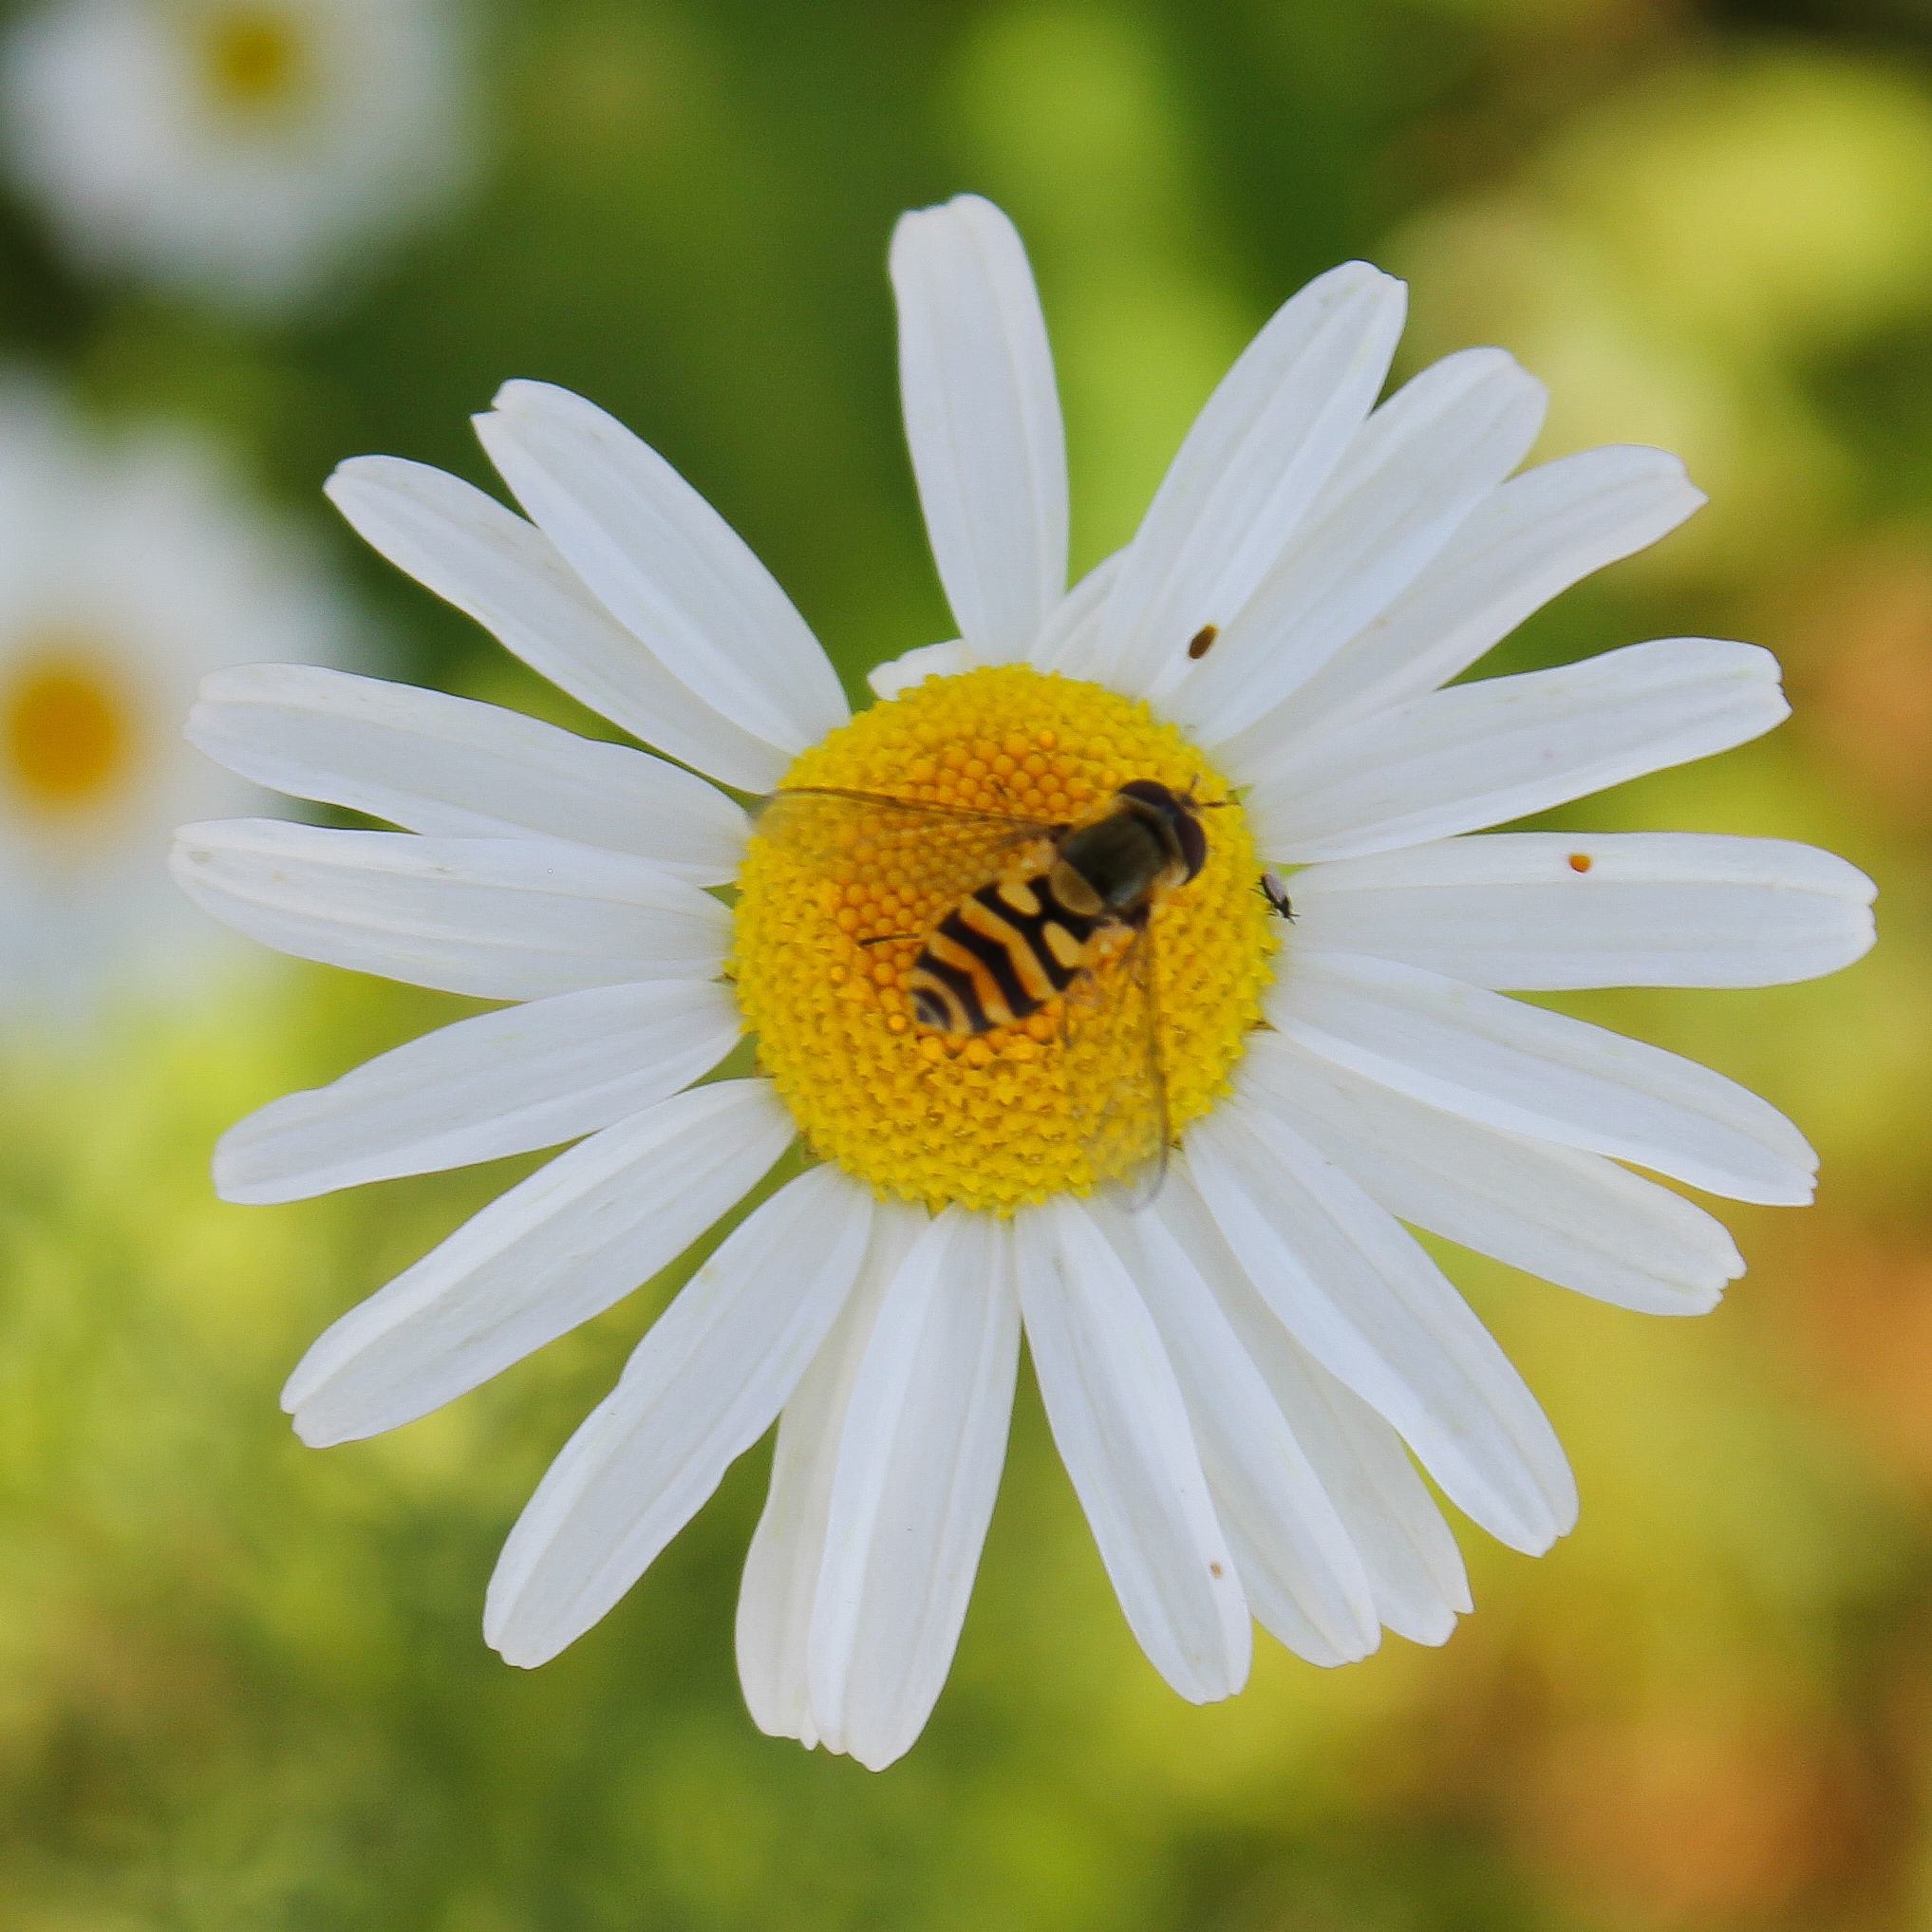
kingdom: Animalia
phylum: Arthropoda
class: Insecta
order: Diptera
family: Syrphidae
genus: Syrphus
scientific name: Syrphus
